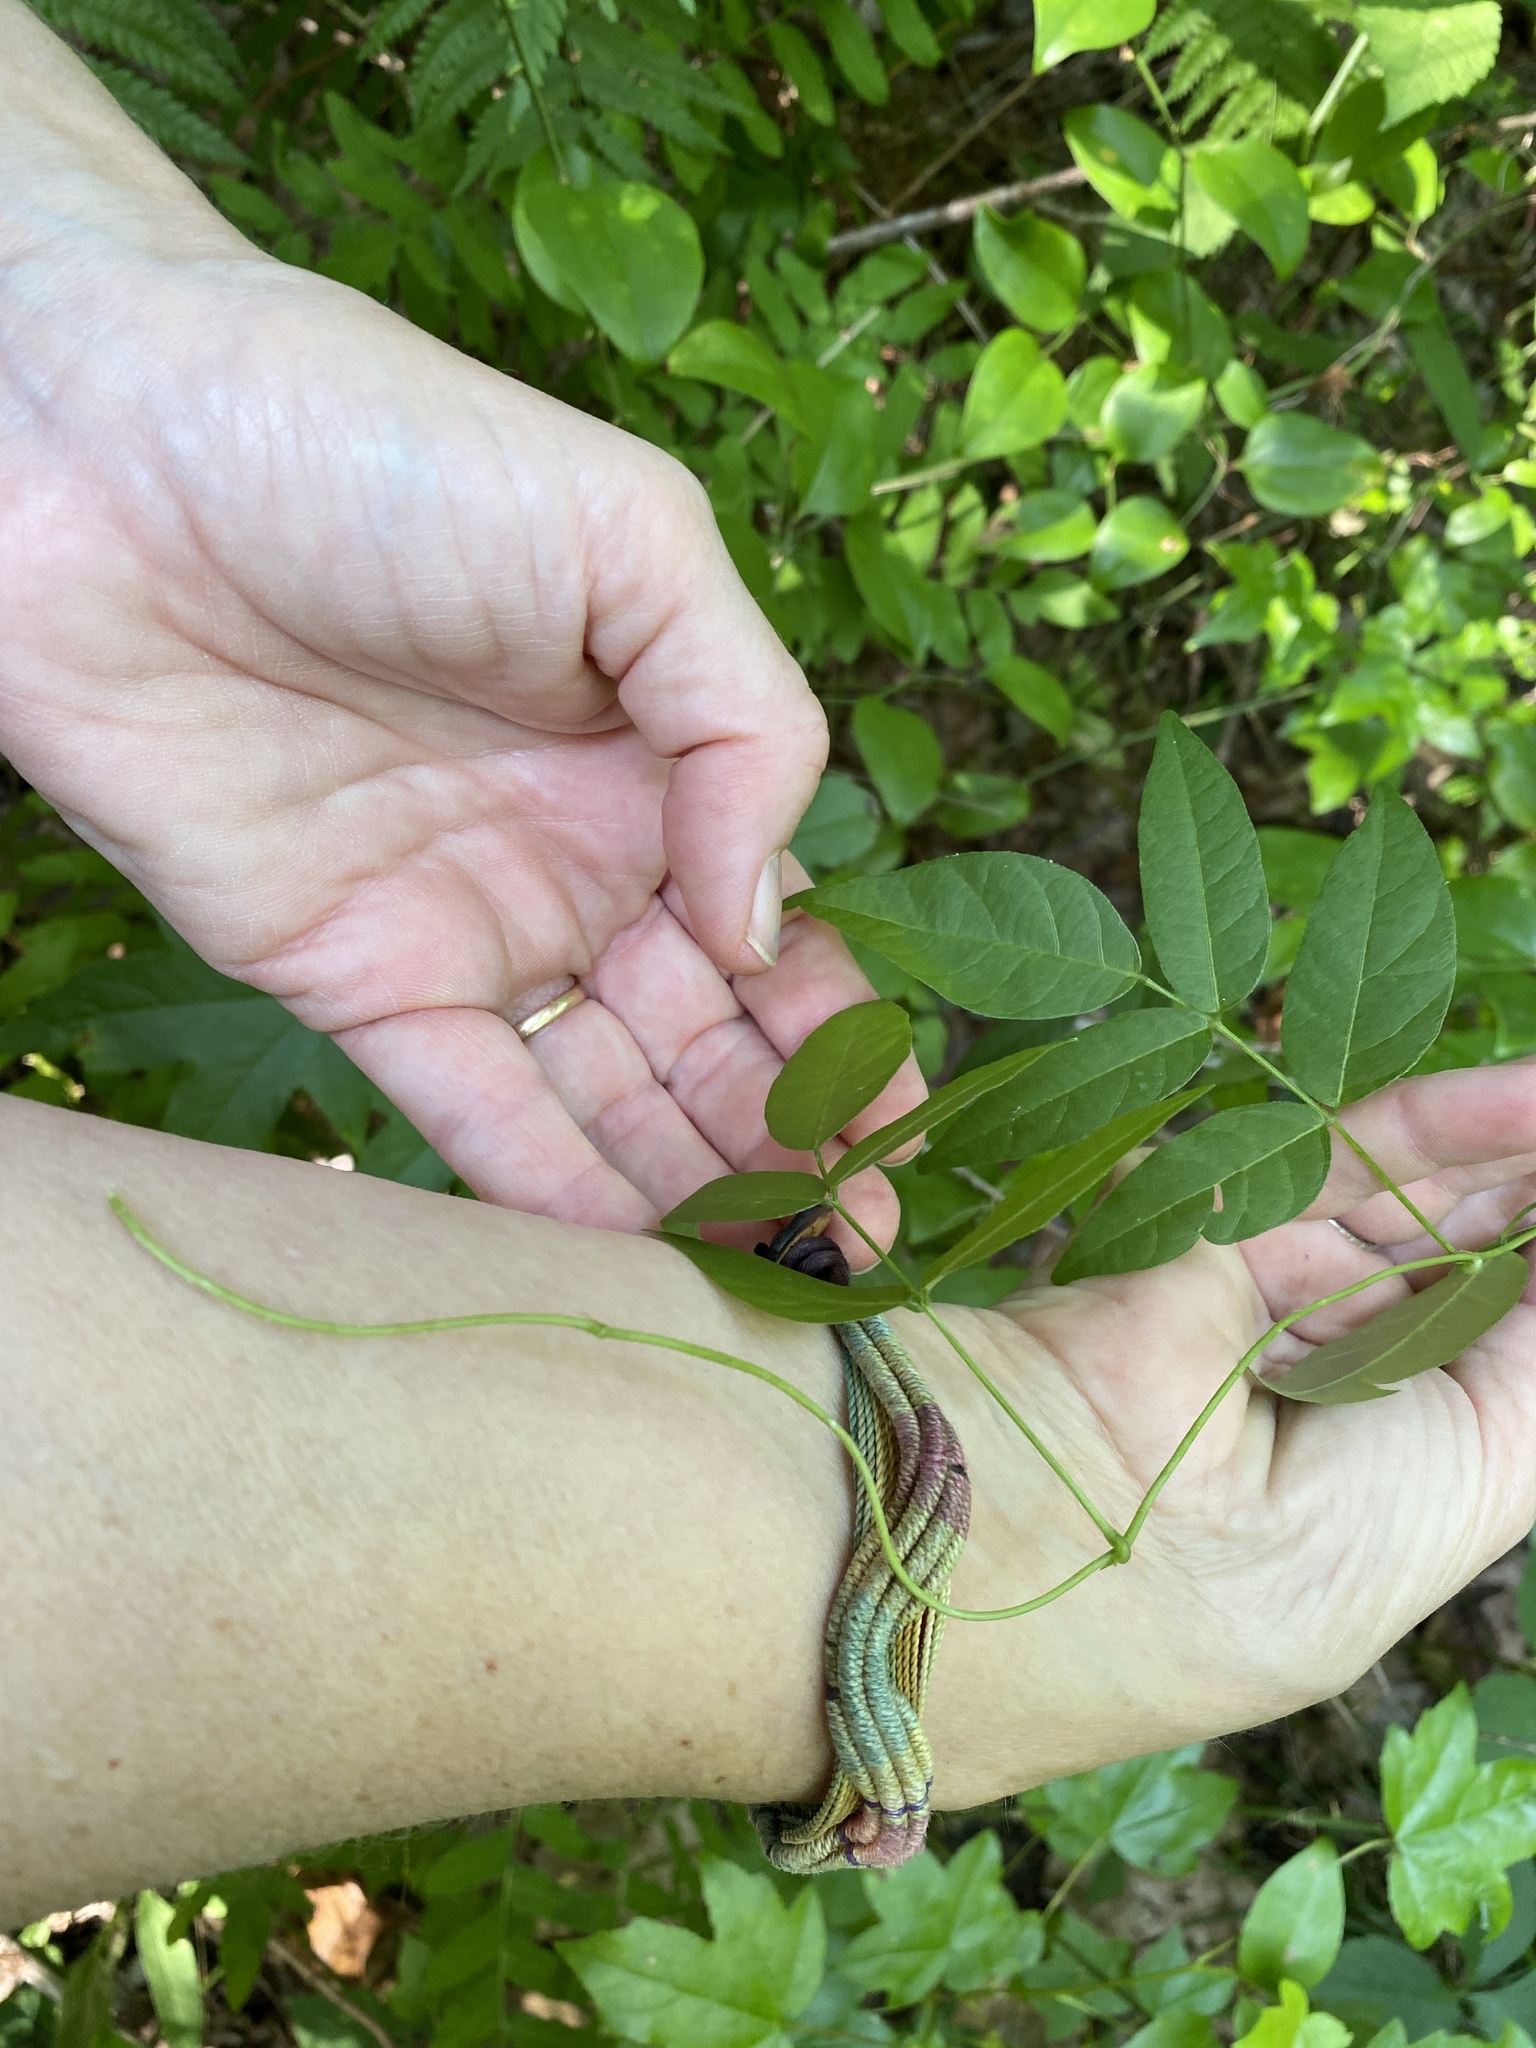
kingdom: Plantae
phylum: Tracheophyta
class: Magnoliopsida
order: Fabales
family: Fabaceae
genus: Apios
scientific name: Apios americana
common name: American potato-bean
